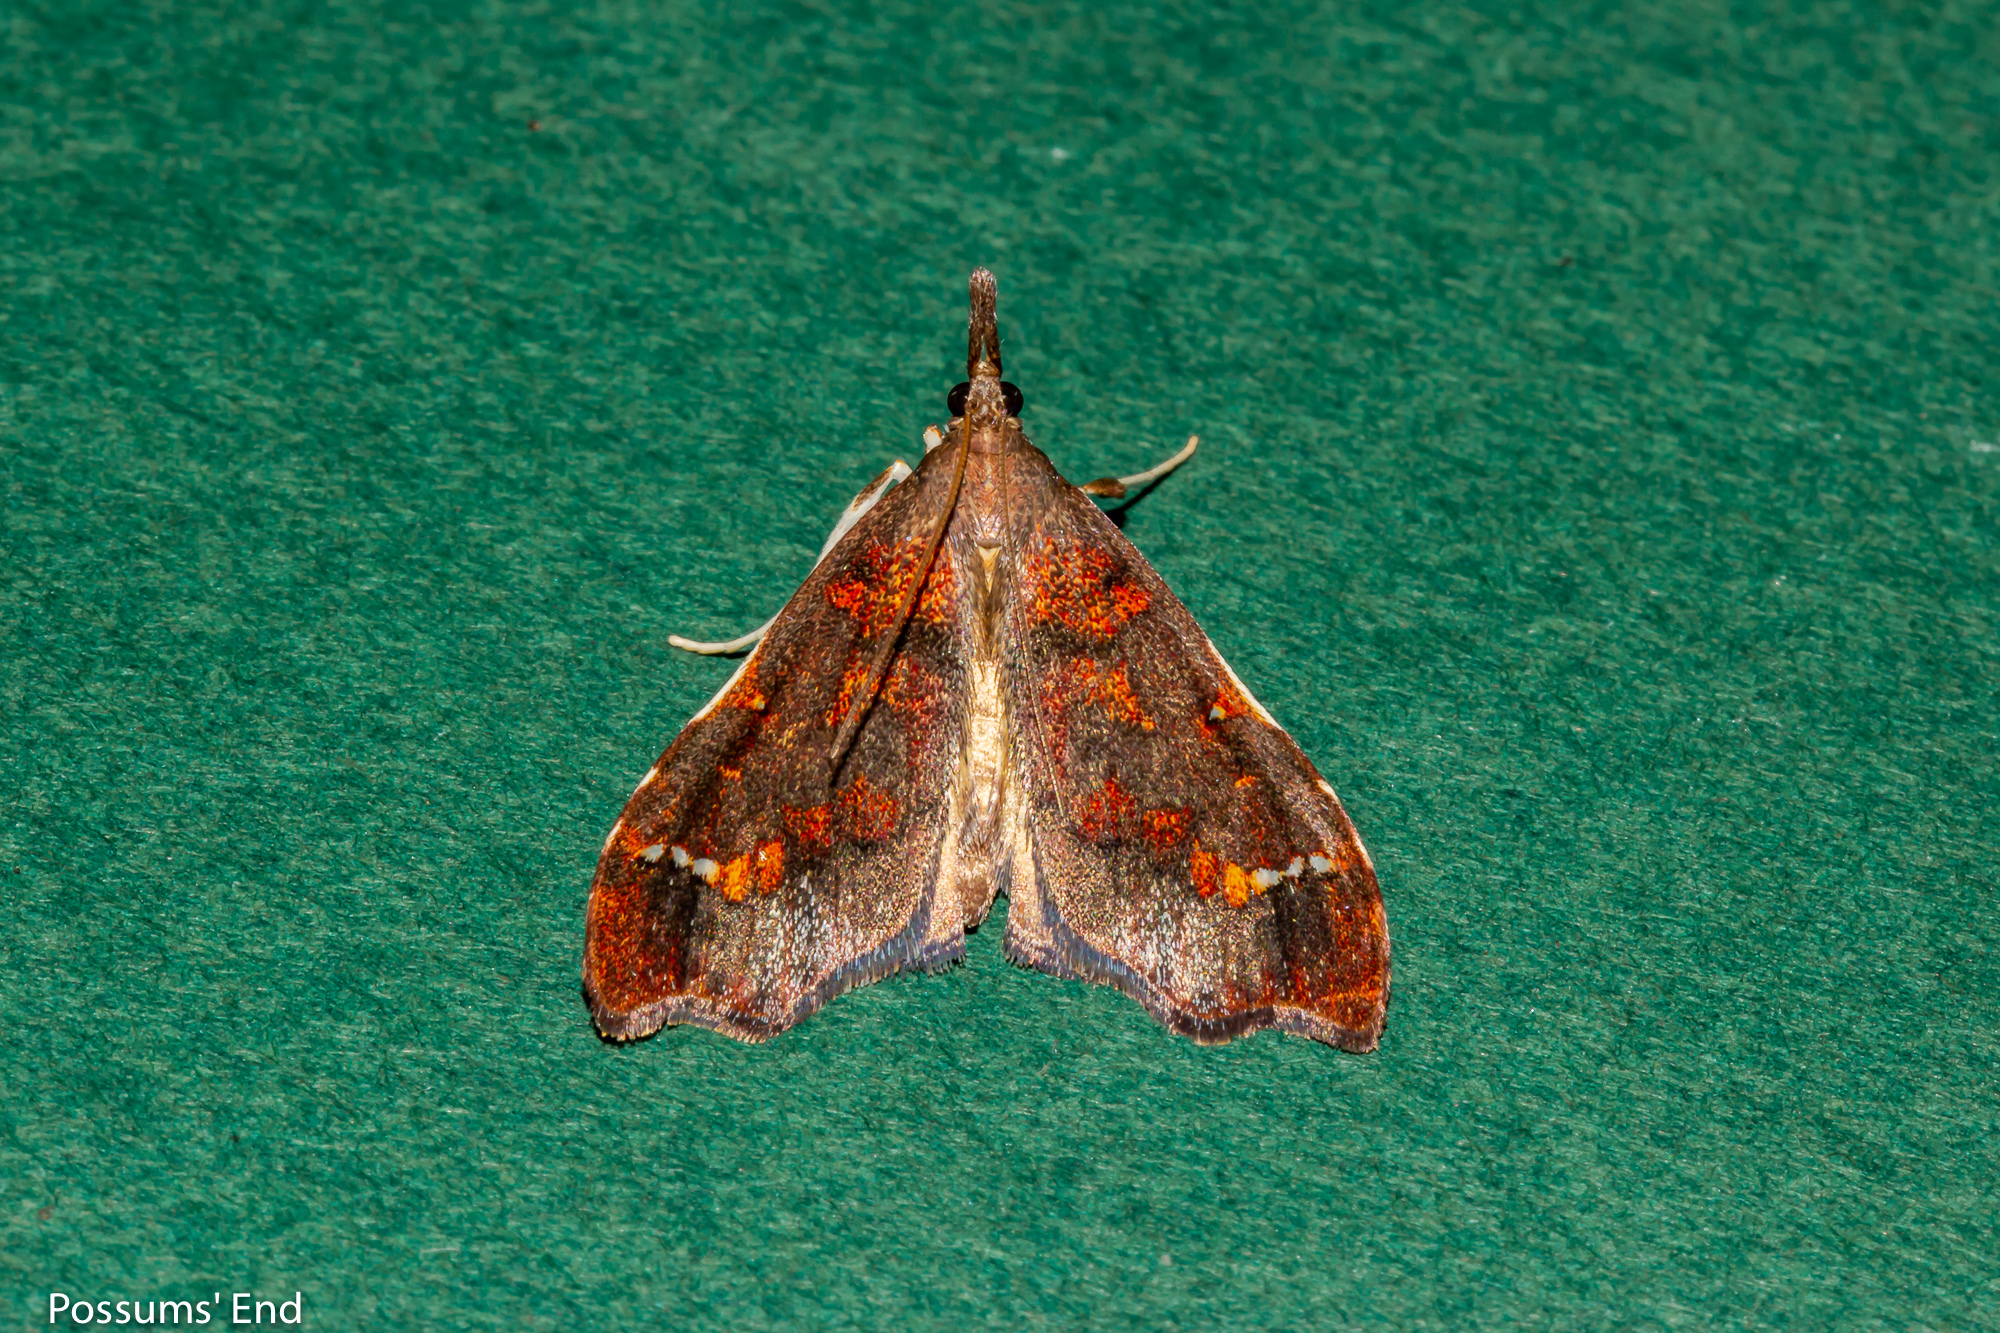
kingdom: Animalia
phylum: Arthropoda
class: Insecta
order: Lepidoptera
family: Crambidae
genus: Deana
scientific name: Deana hybreasalis
